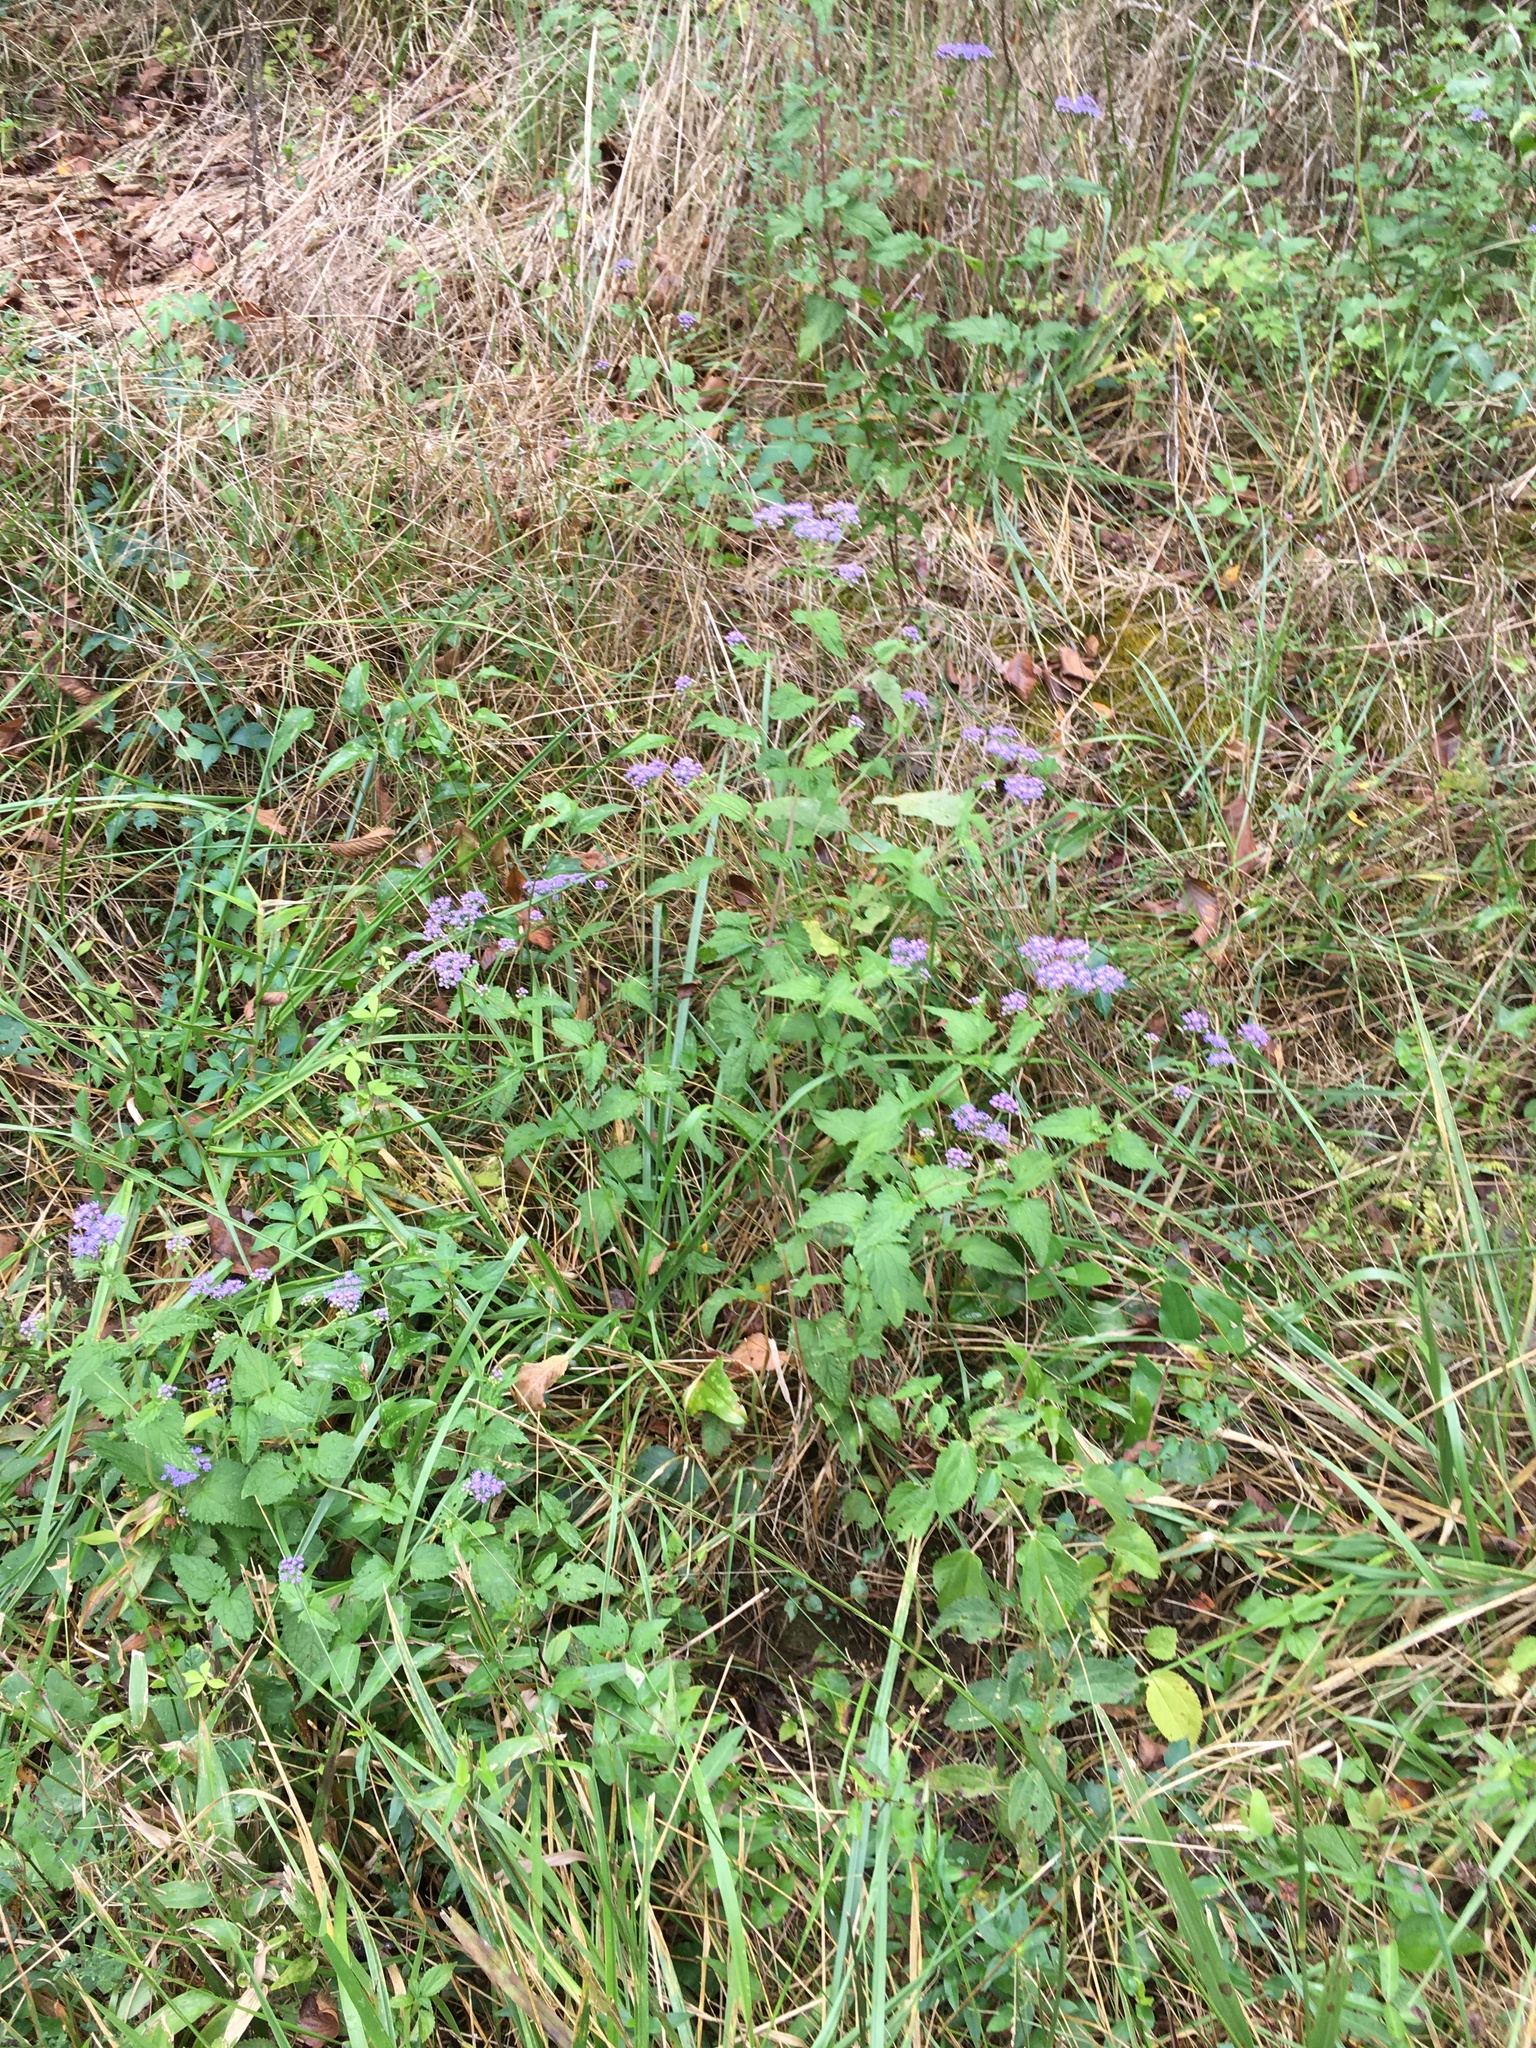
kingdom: Plantae
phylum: Tracheophyta
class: Magnoliopsida
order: Asterales
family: Asteraceae
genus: Conoclinium
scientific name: Conoclinium coelestinum
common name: Blue mistflower
